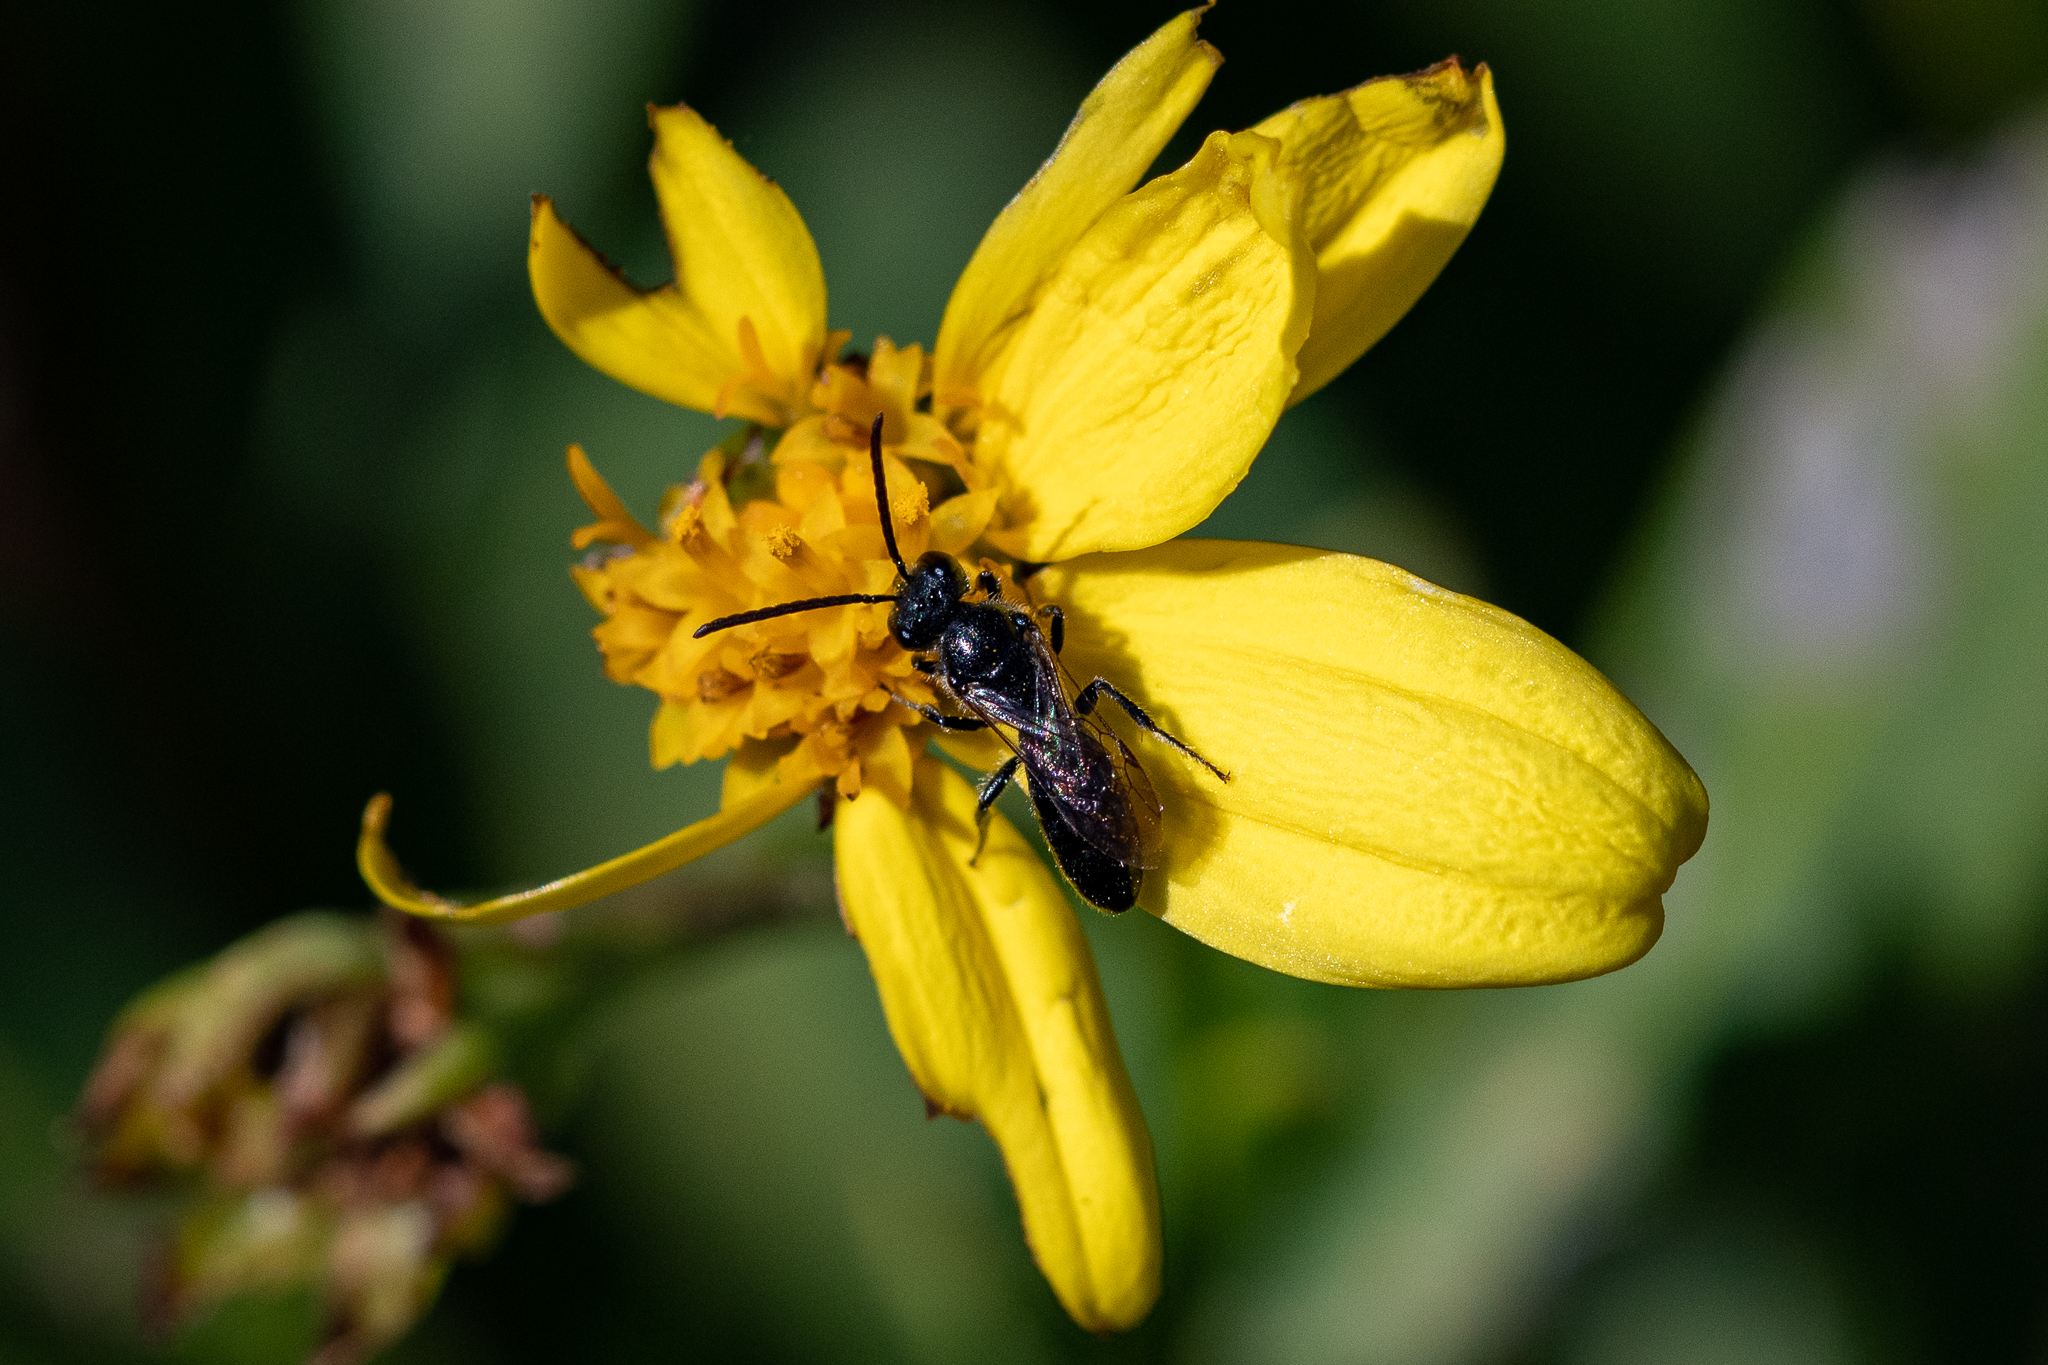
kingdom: Plantae
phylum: Tracheophyta
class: Magnoliopsida
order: Asterales
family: Asteraceae
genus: Osteospermum
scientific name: Osteospermum moniliferum
